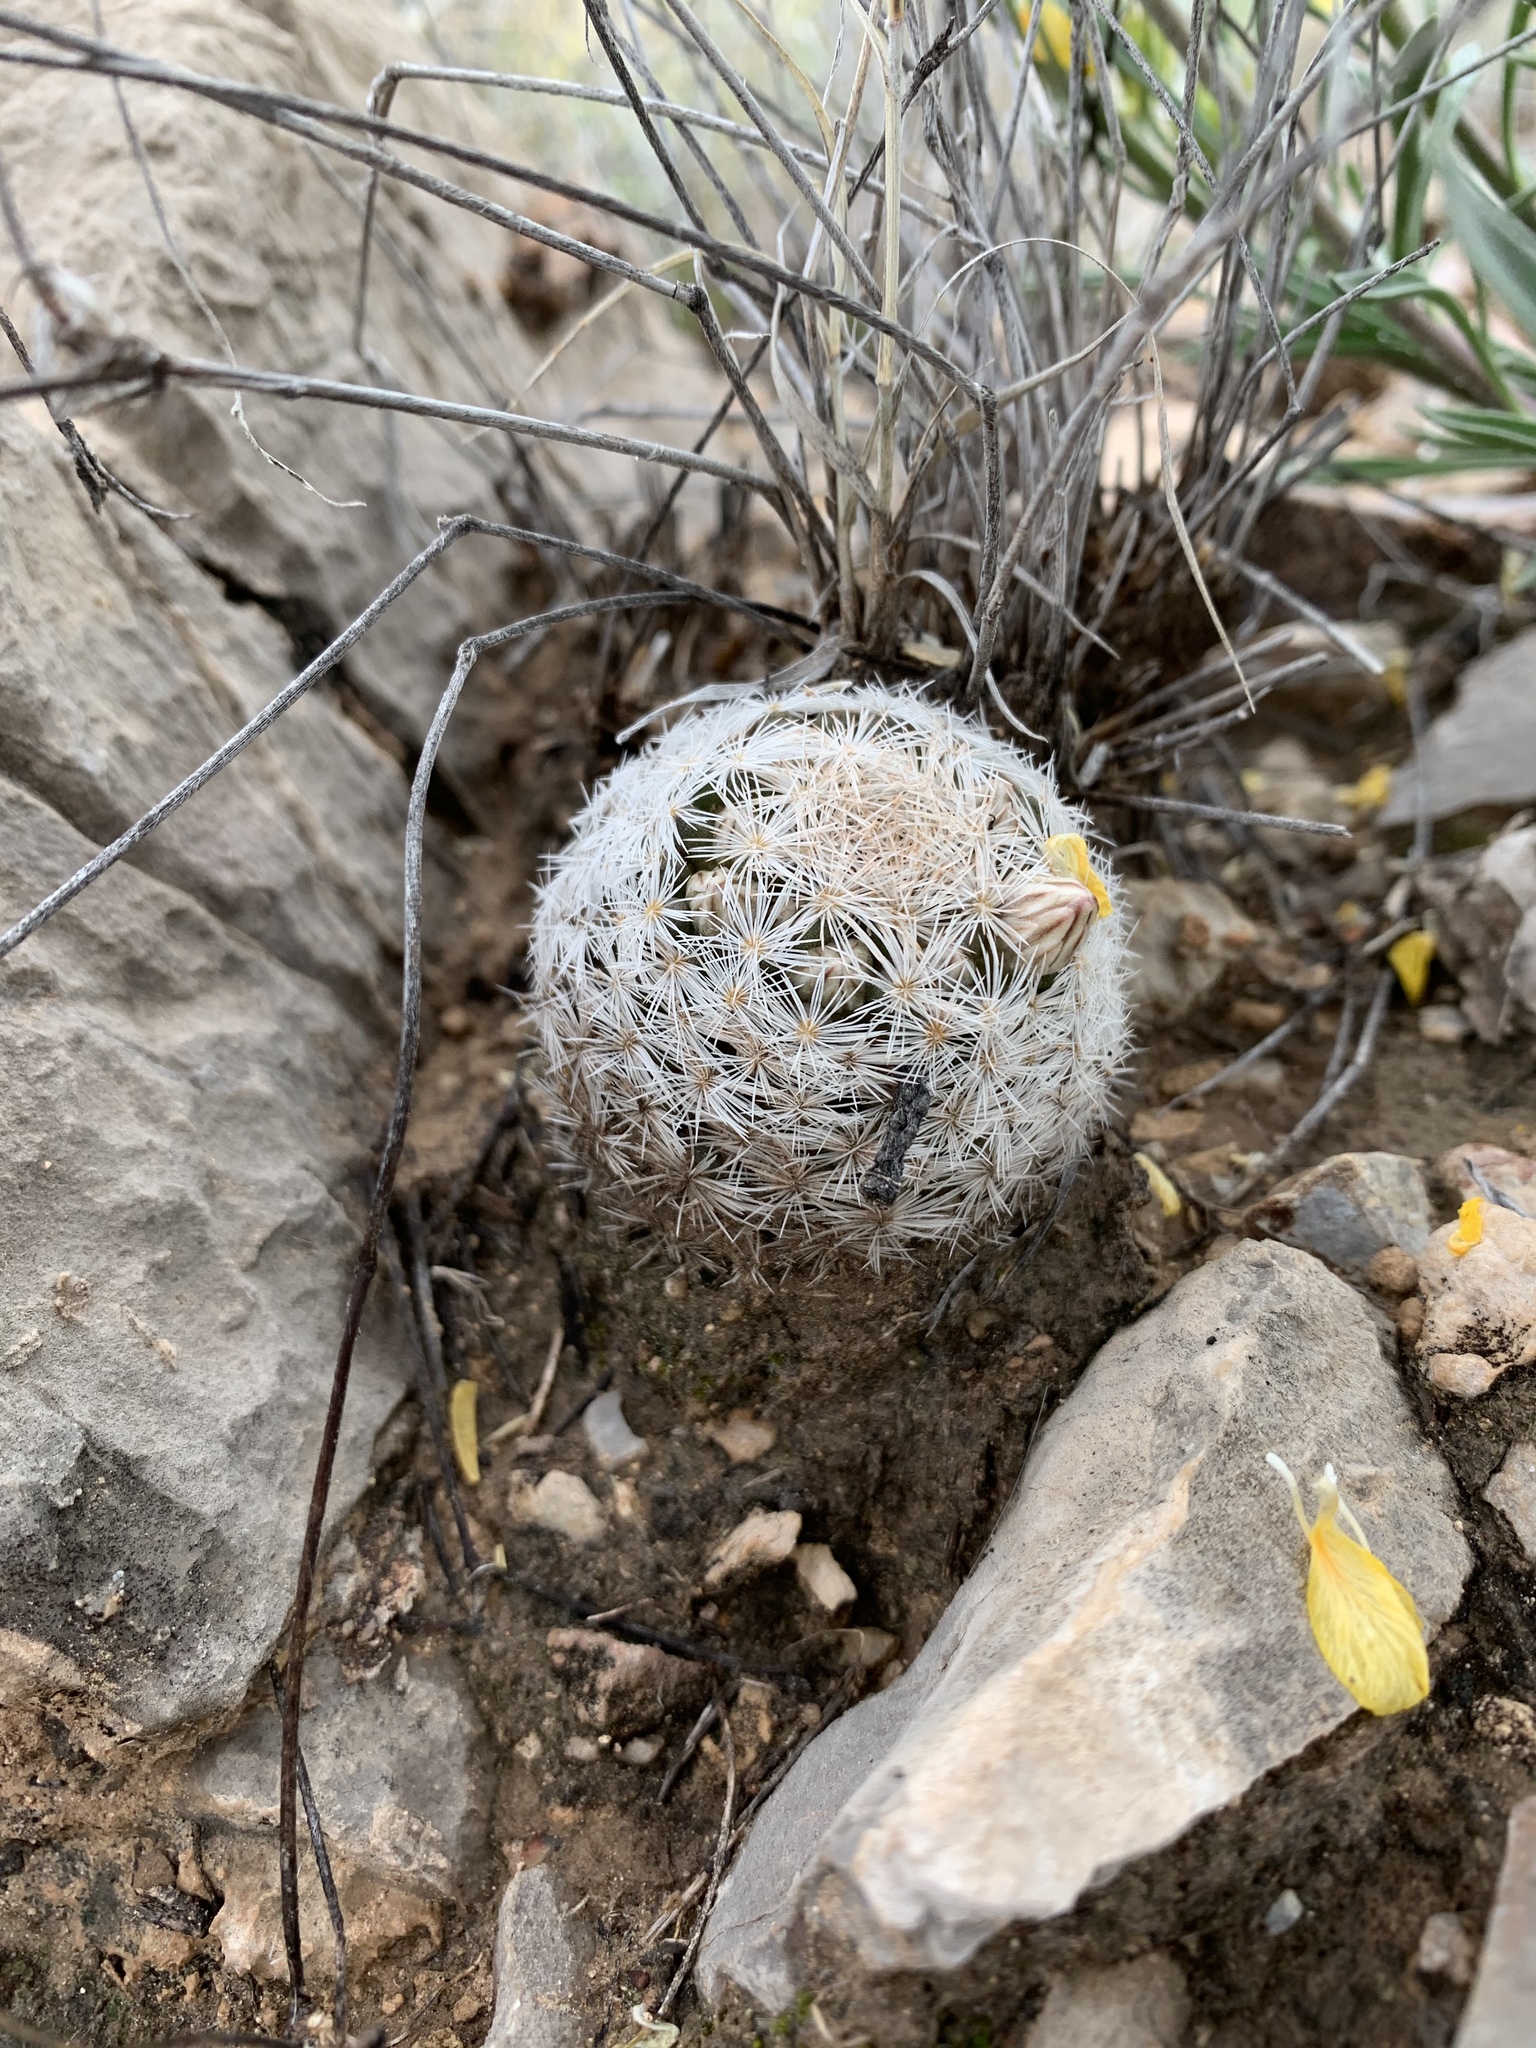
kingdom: Plantae
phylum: Tracheophyta
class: Magnoliopsida
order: Caryophyllales
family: Cactaceae
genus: Mammillaria
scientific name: Mammillaria lasiacantha
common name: Lace-spine nipple cactus
